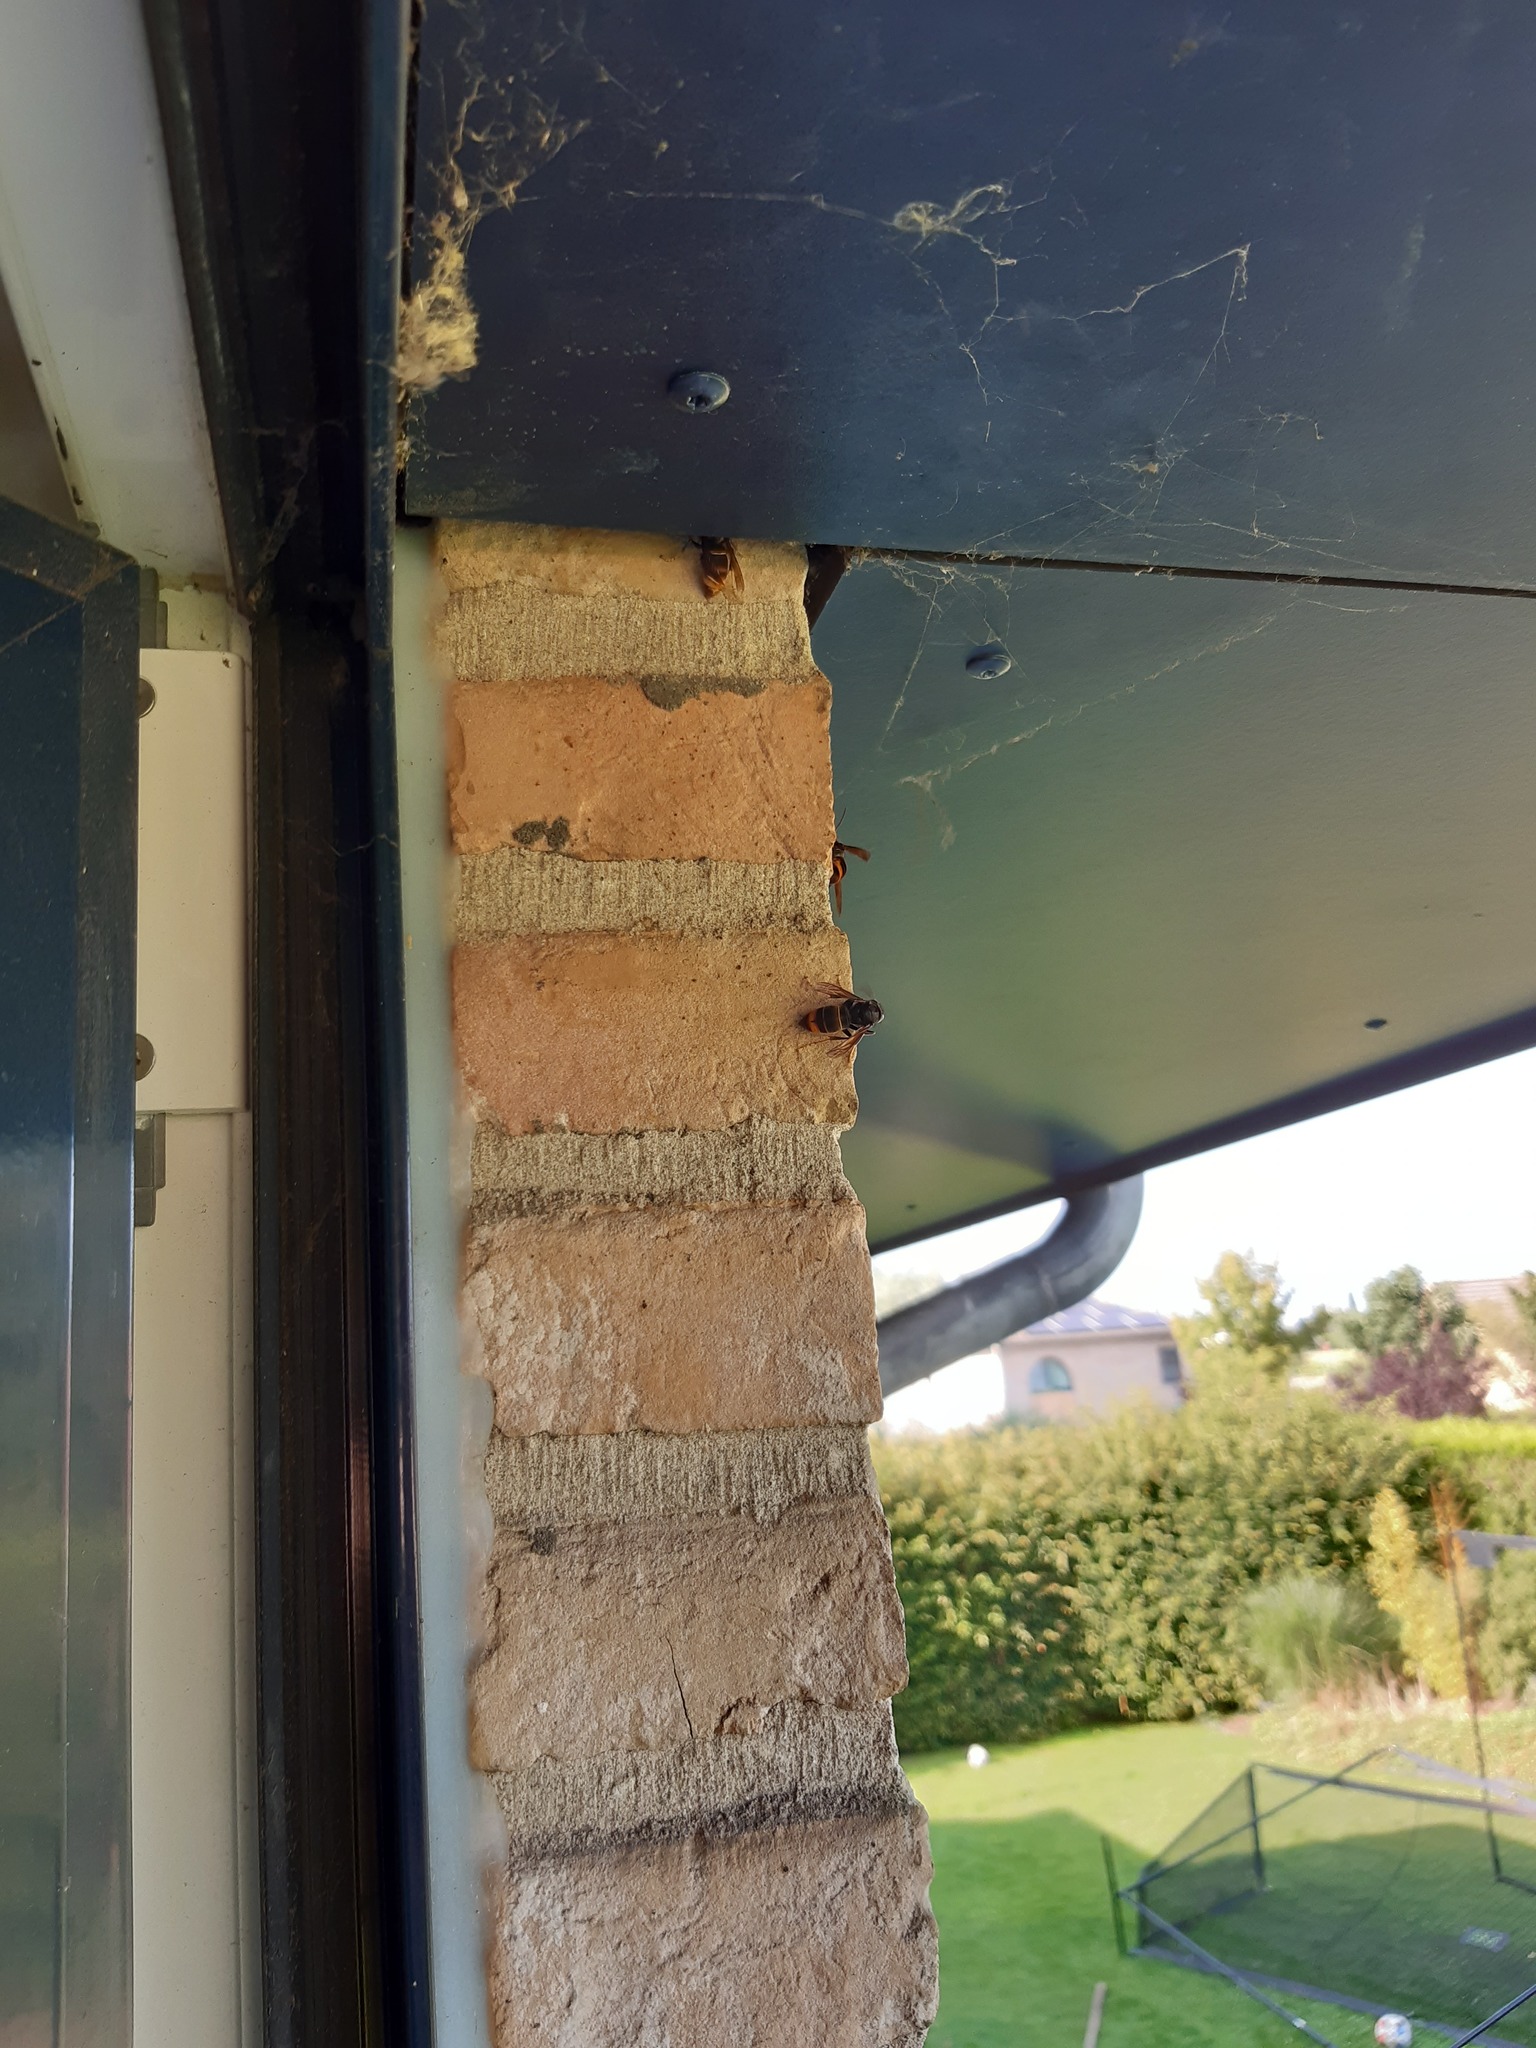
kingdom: Animalia
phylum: Arthropoda
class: Insecta
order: Hymenoptera
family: Vespidae
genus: Vespa
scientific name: Vespa velutina
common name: Asian hornet
